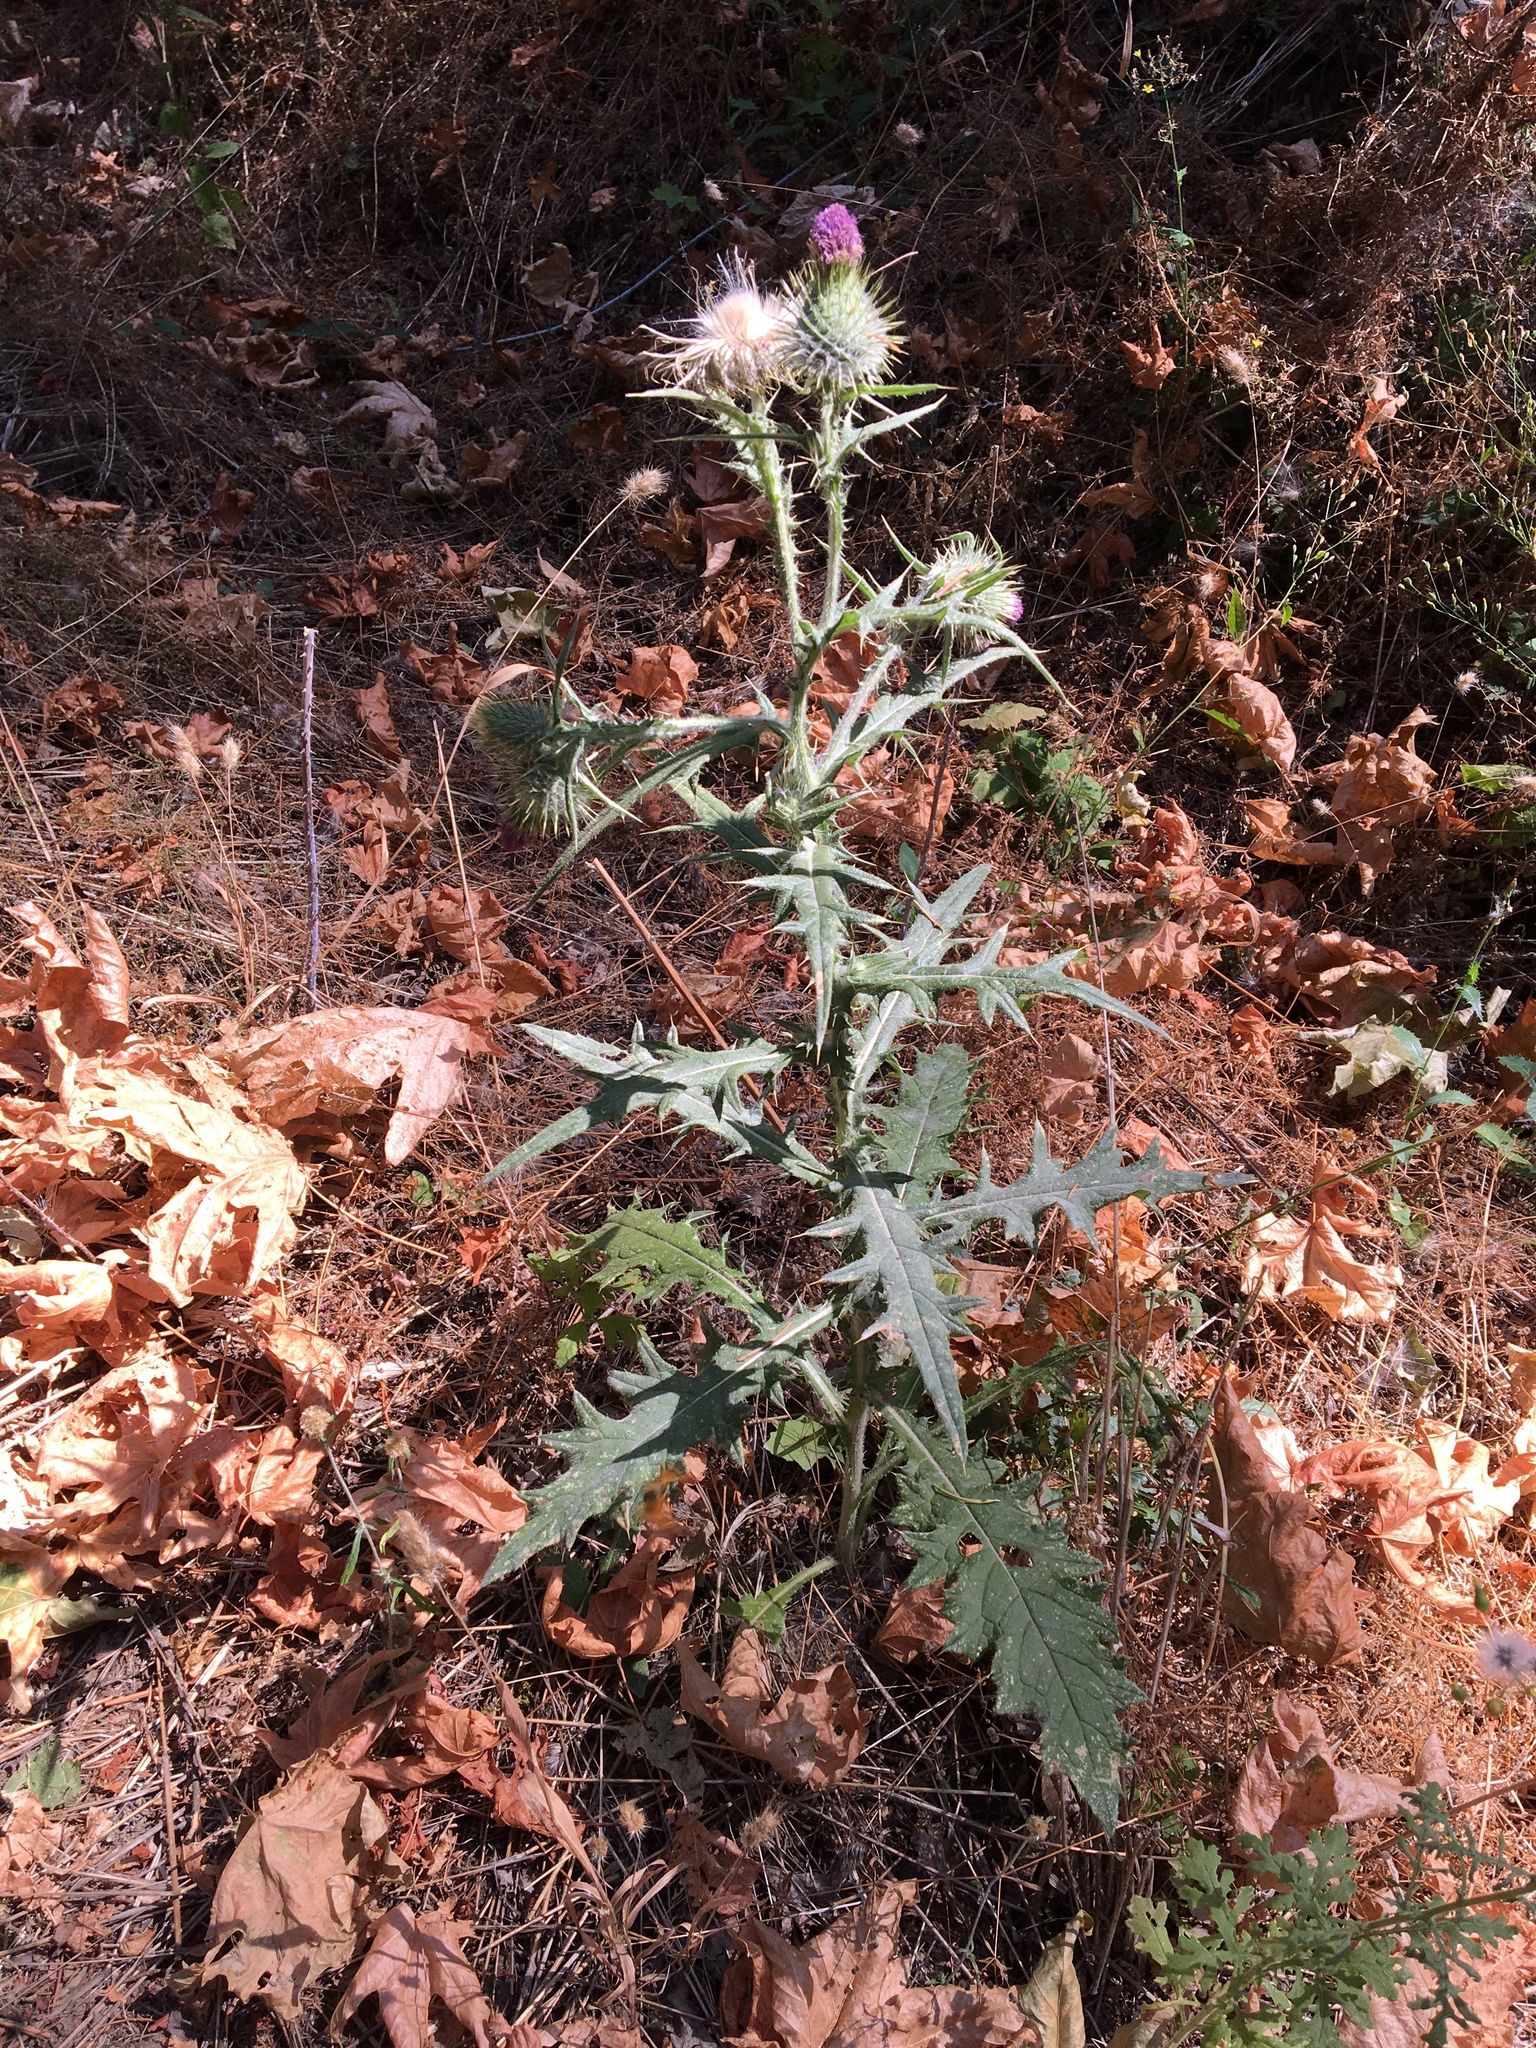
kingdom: Plantae
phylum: Tracheophyta
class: Magnoliopsida
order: Asterales
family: Asteraceae
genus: Cirsium
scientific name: Cirsium vulgare
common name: Bull thistle
